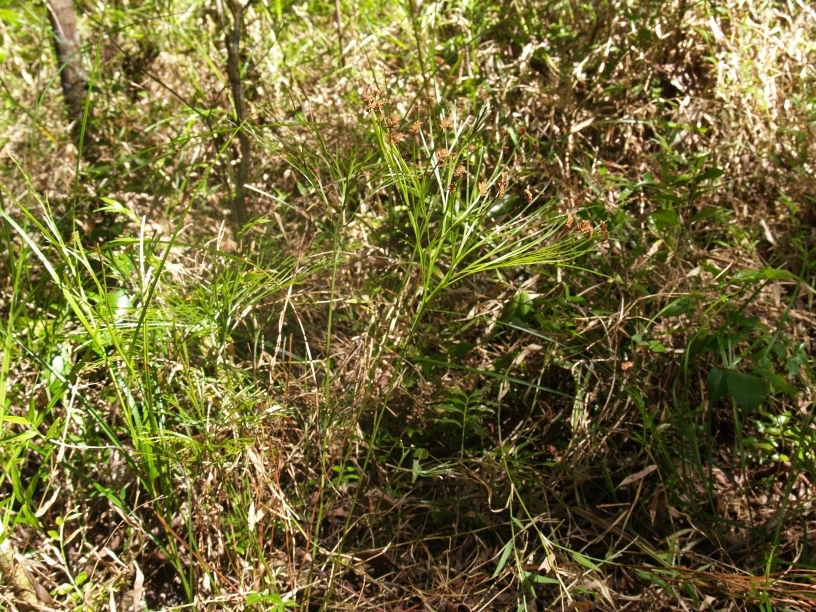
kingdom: Plantae
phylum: Tracheophyta
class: Polypodiopsida
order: Schizaeales
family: Schizaeaceae
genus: Schizaea
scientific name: Schizaea dichotoma
